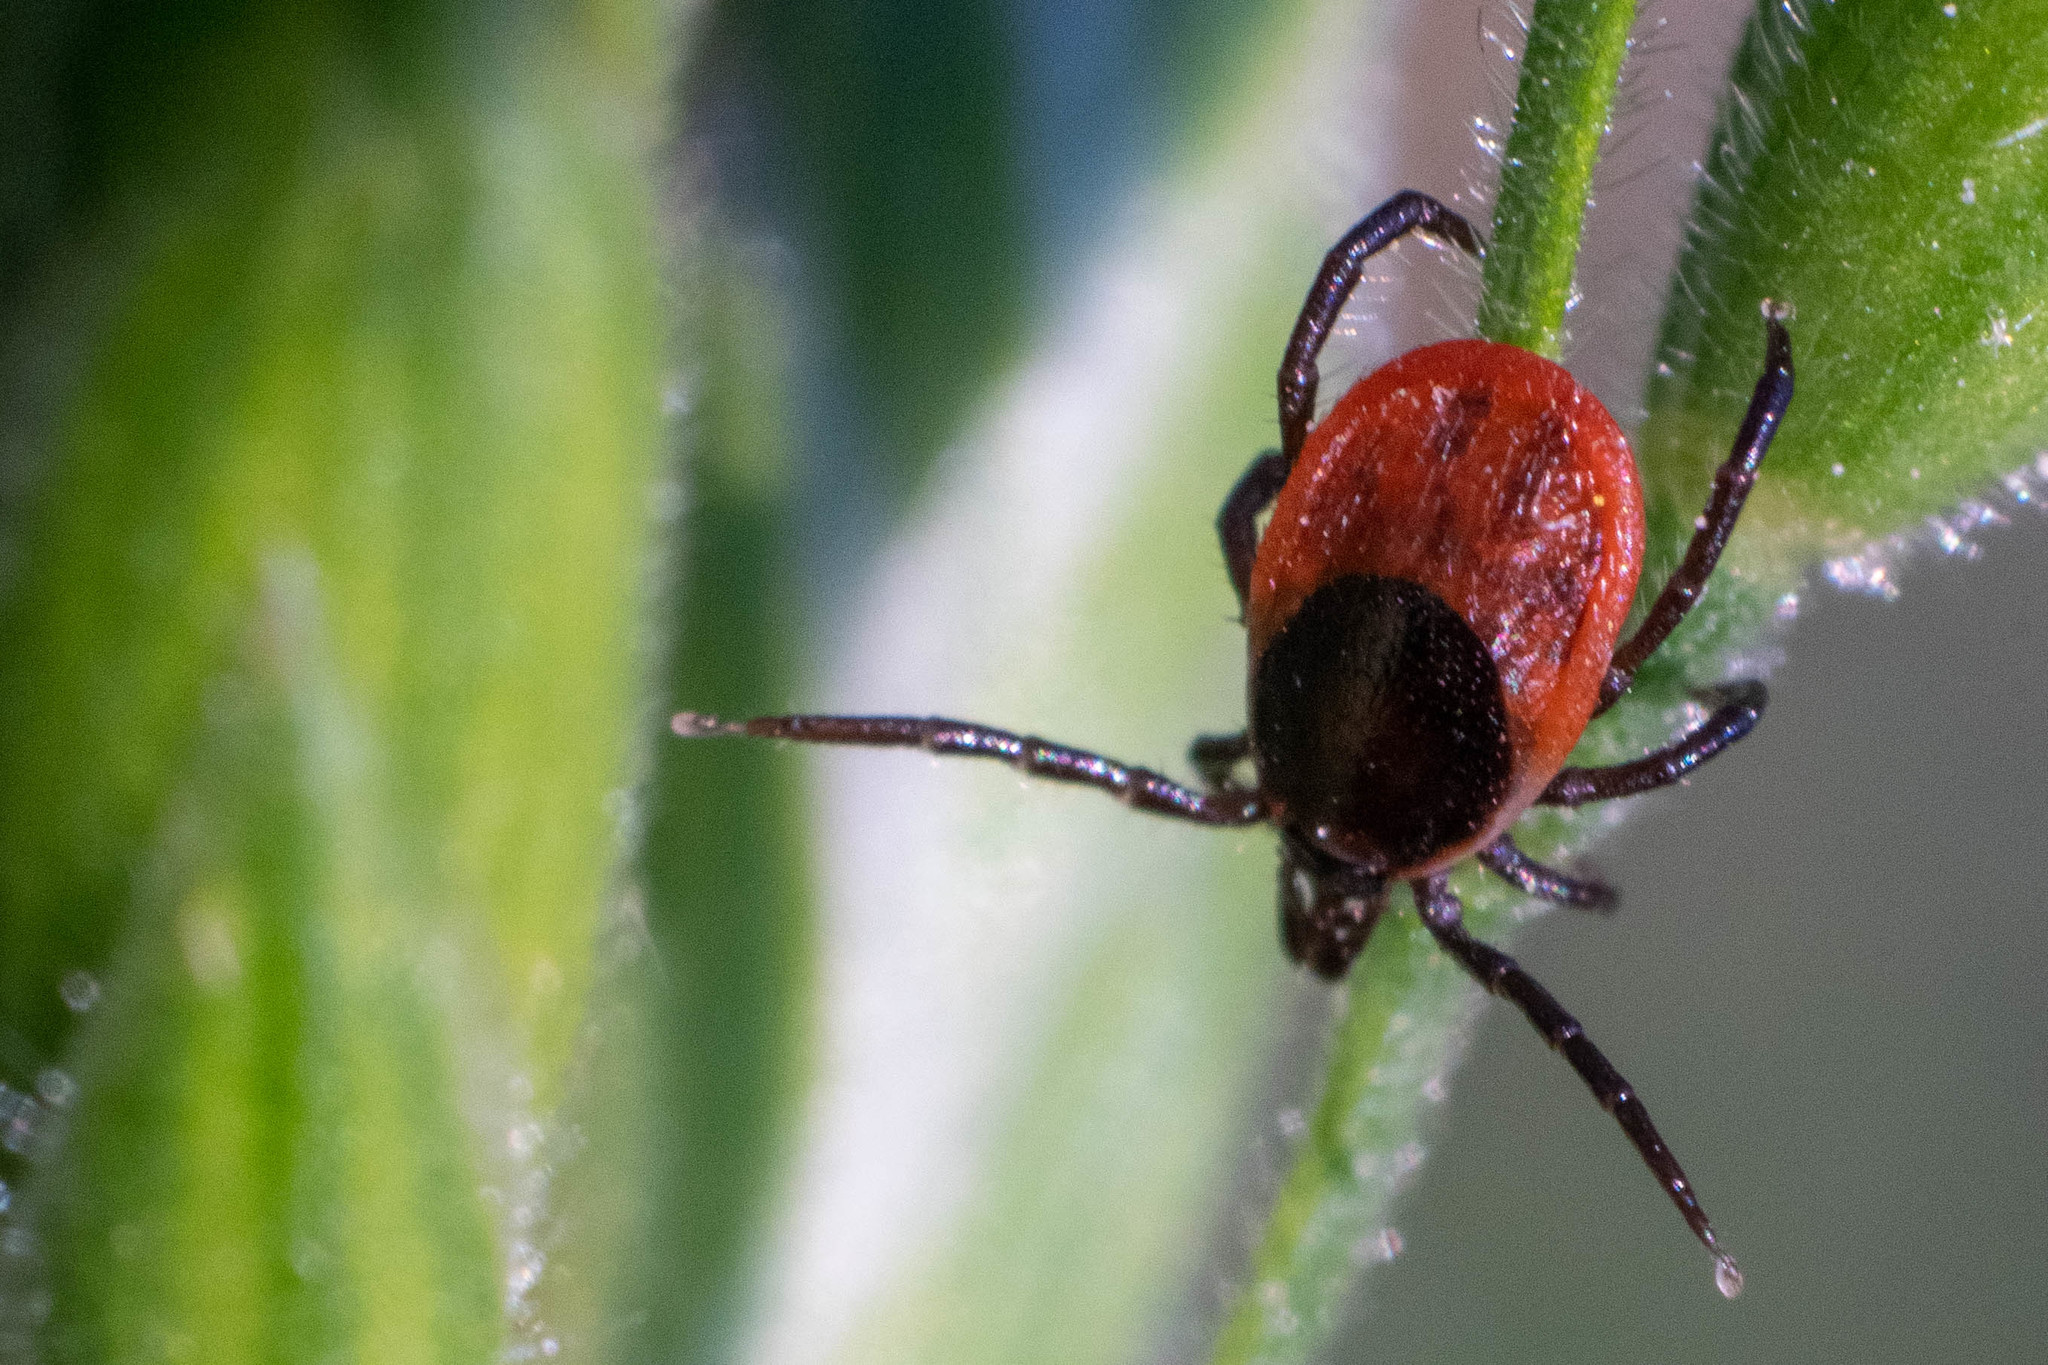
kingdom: Animalia
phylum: Arthropoda
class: Arachnida
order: Ixodida
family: Ixodidae
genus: Ixodes
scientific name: Ixodes ricinus
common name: Castor bean tick
